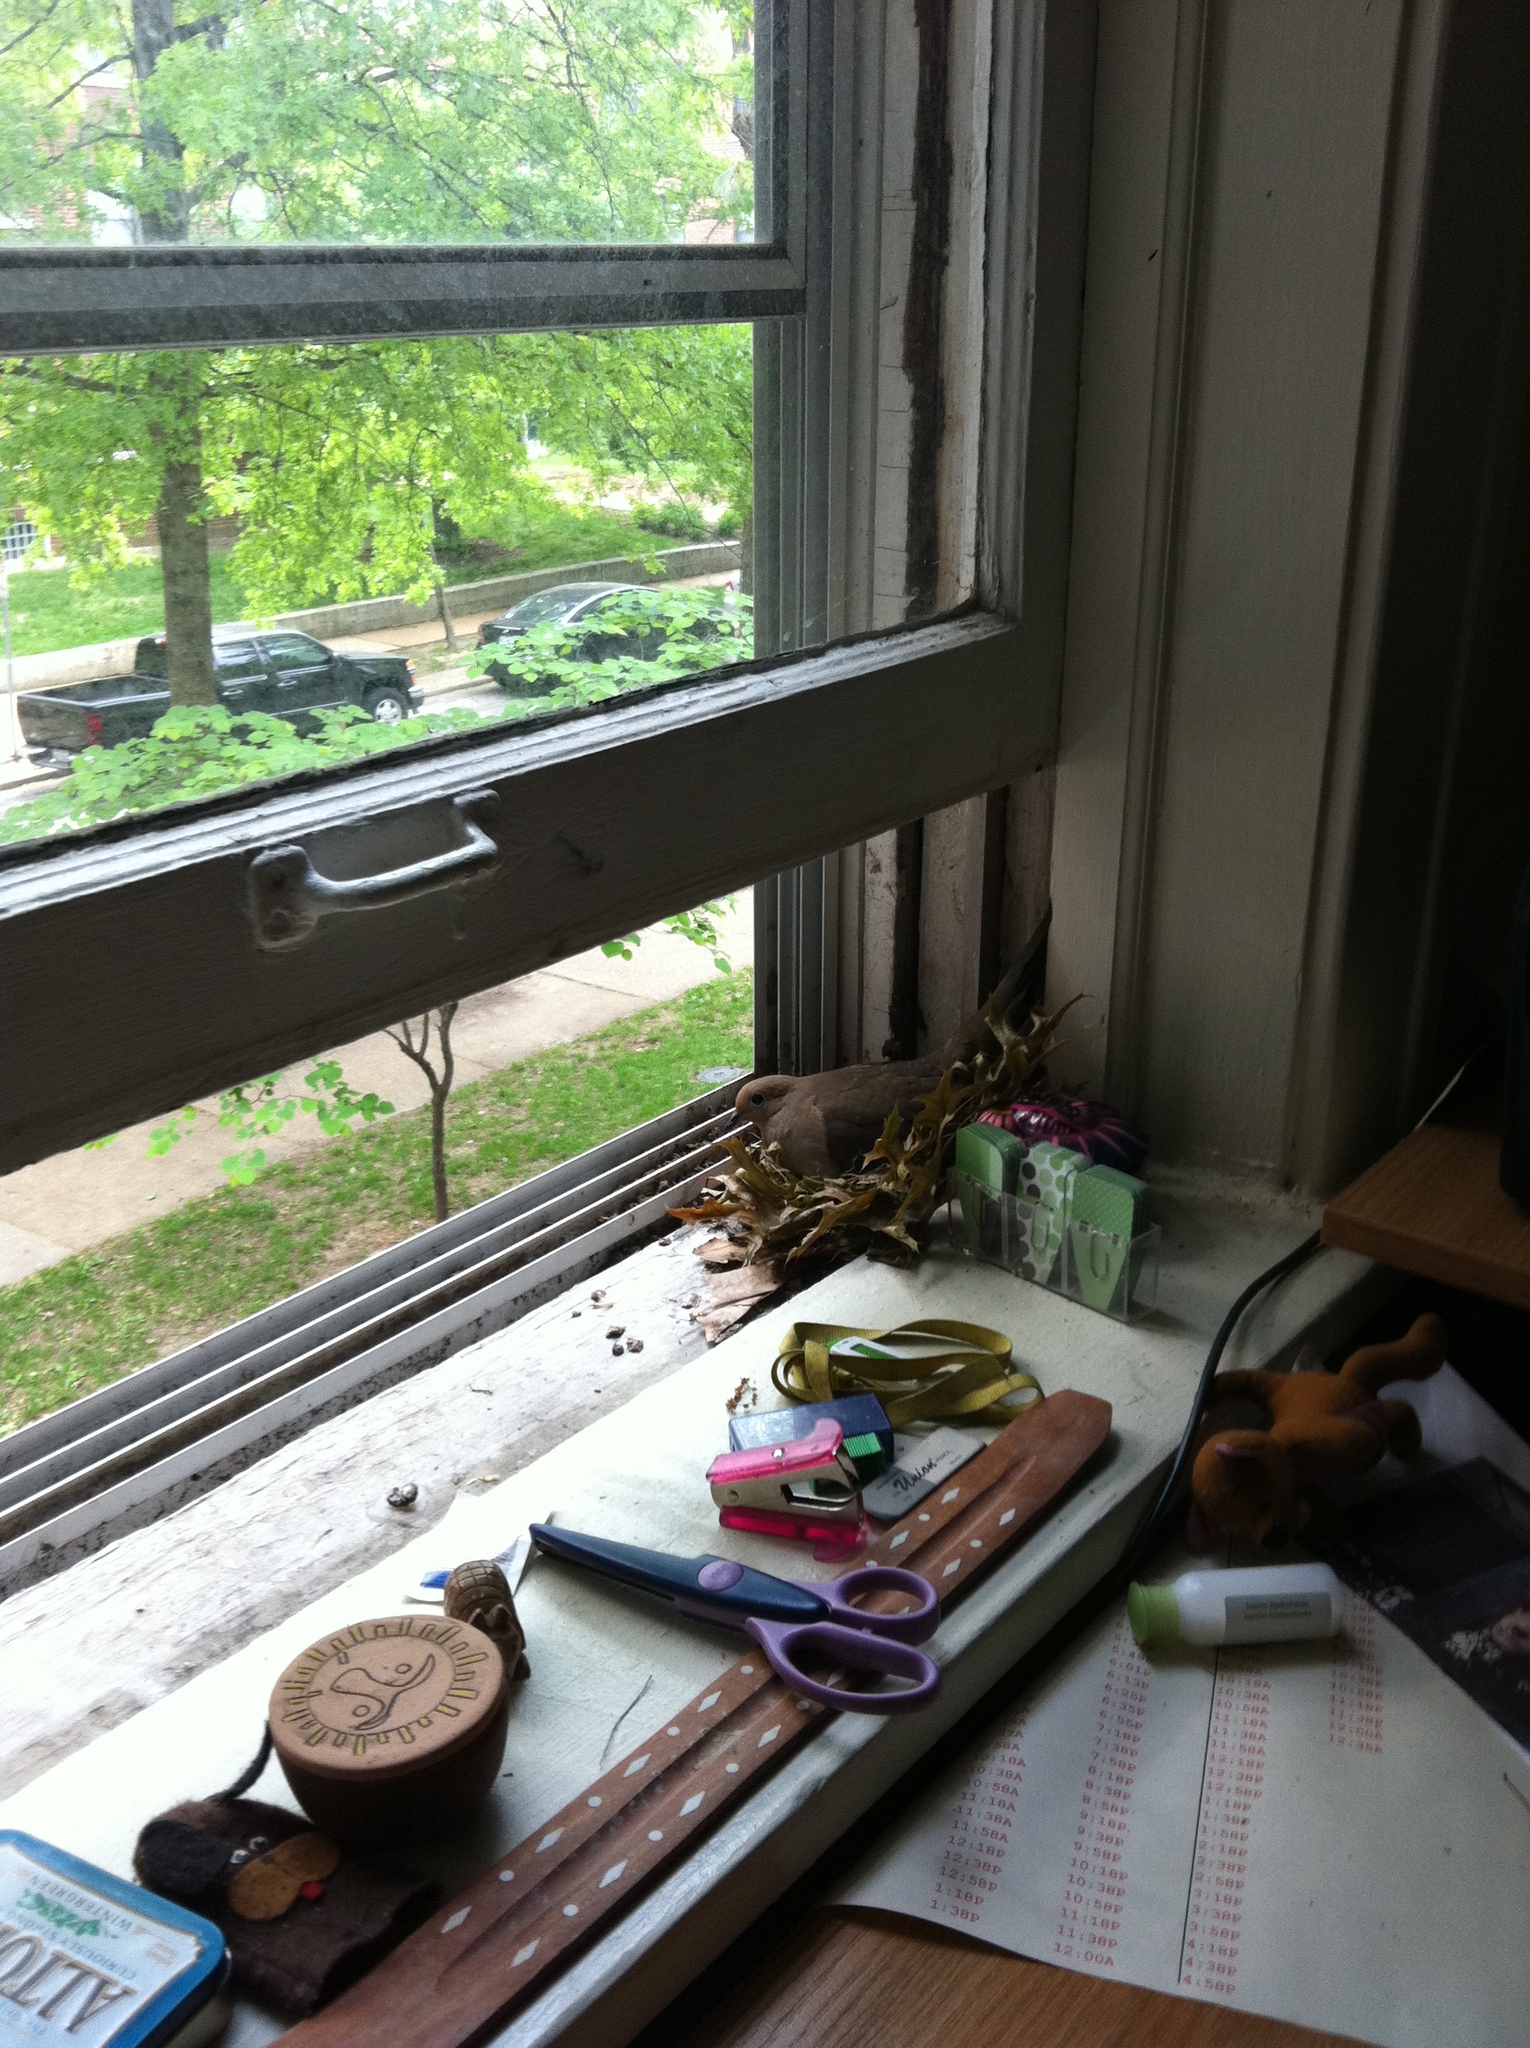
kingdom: Animalia
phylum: Chordata
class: Aves
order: Columbiformes
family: Columbidae
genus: Zenaida
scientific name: Zenaida macroura
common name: Mourning dove
